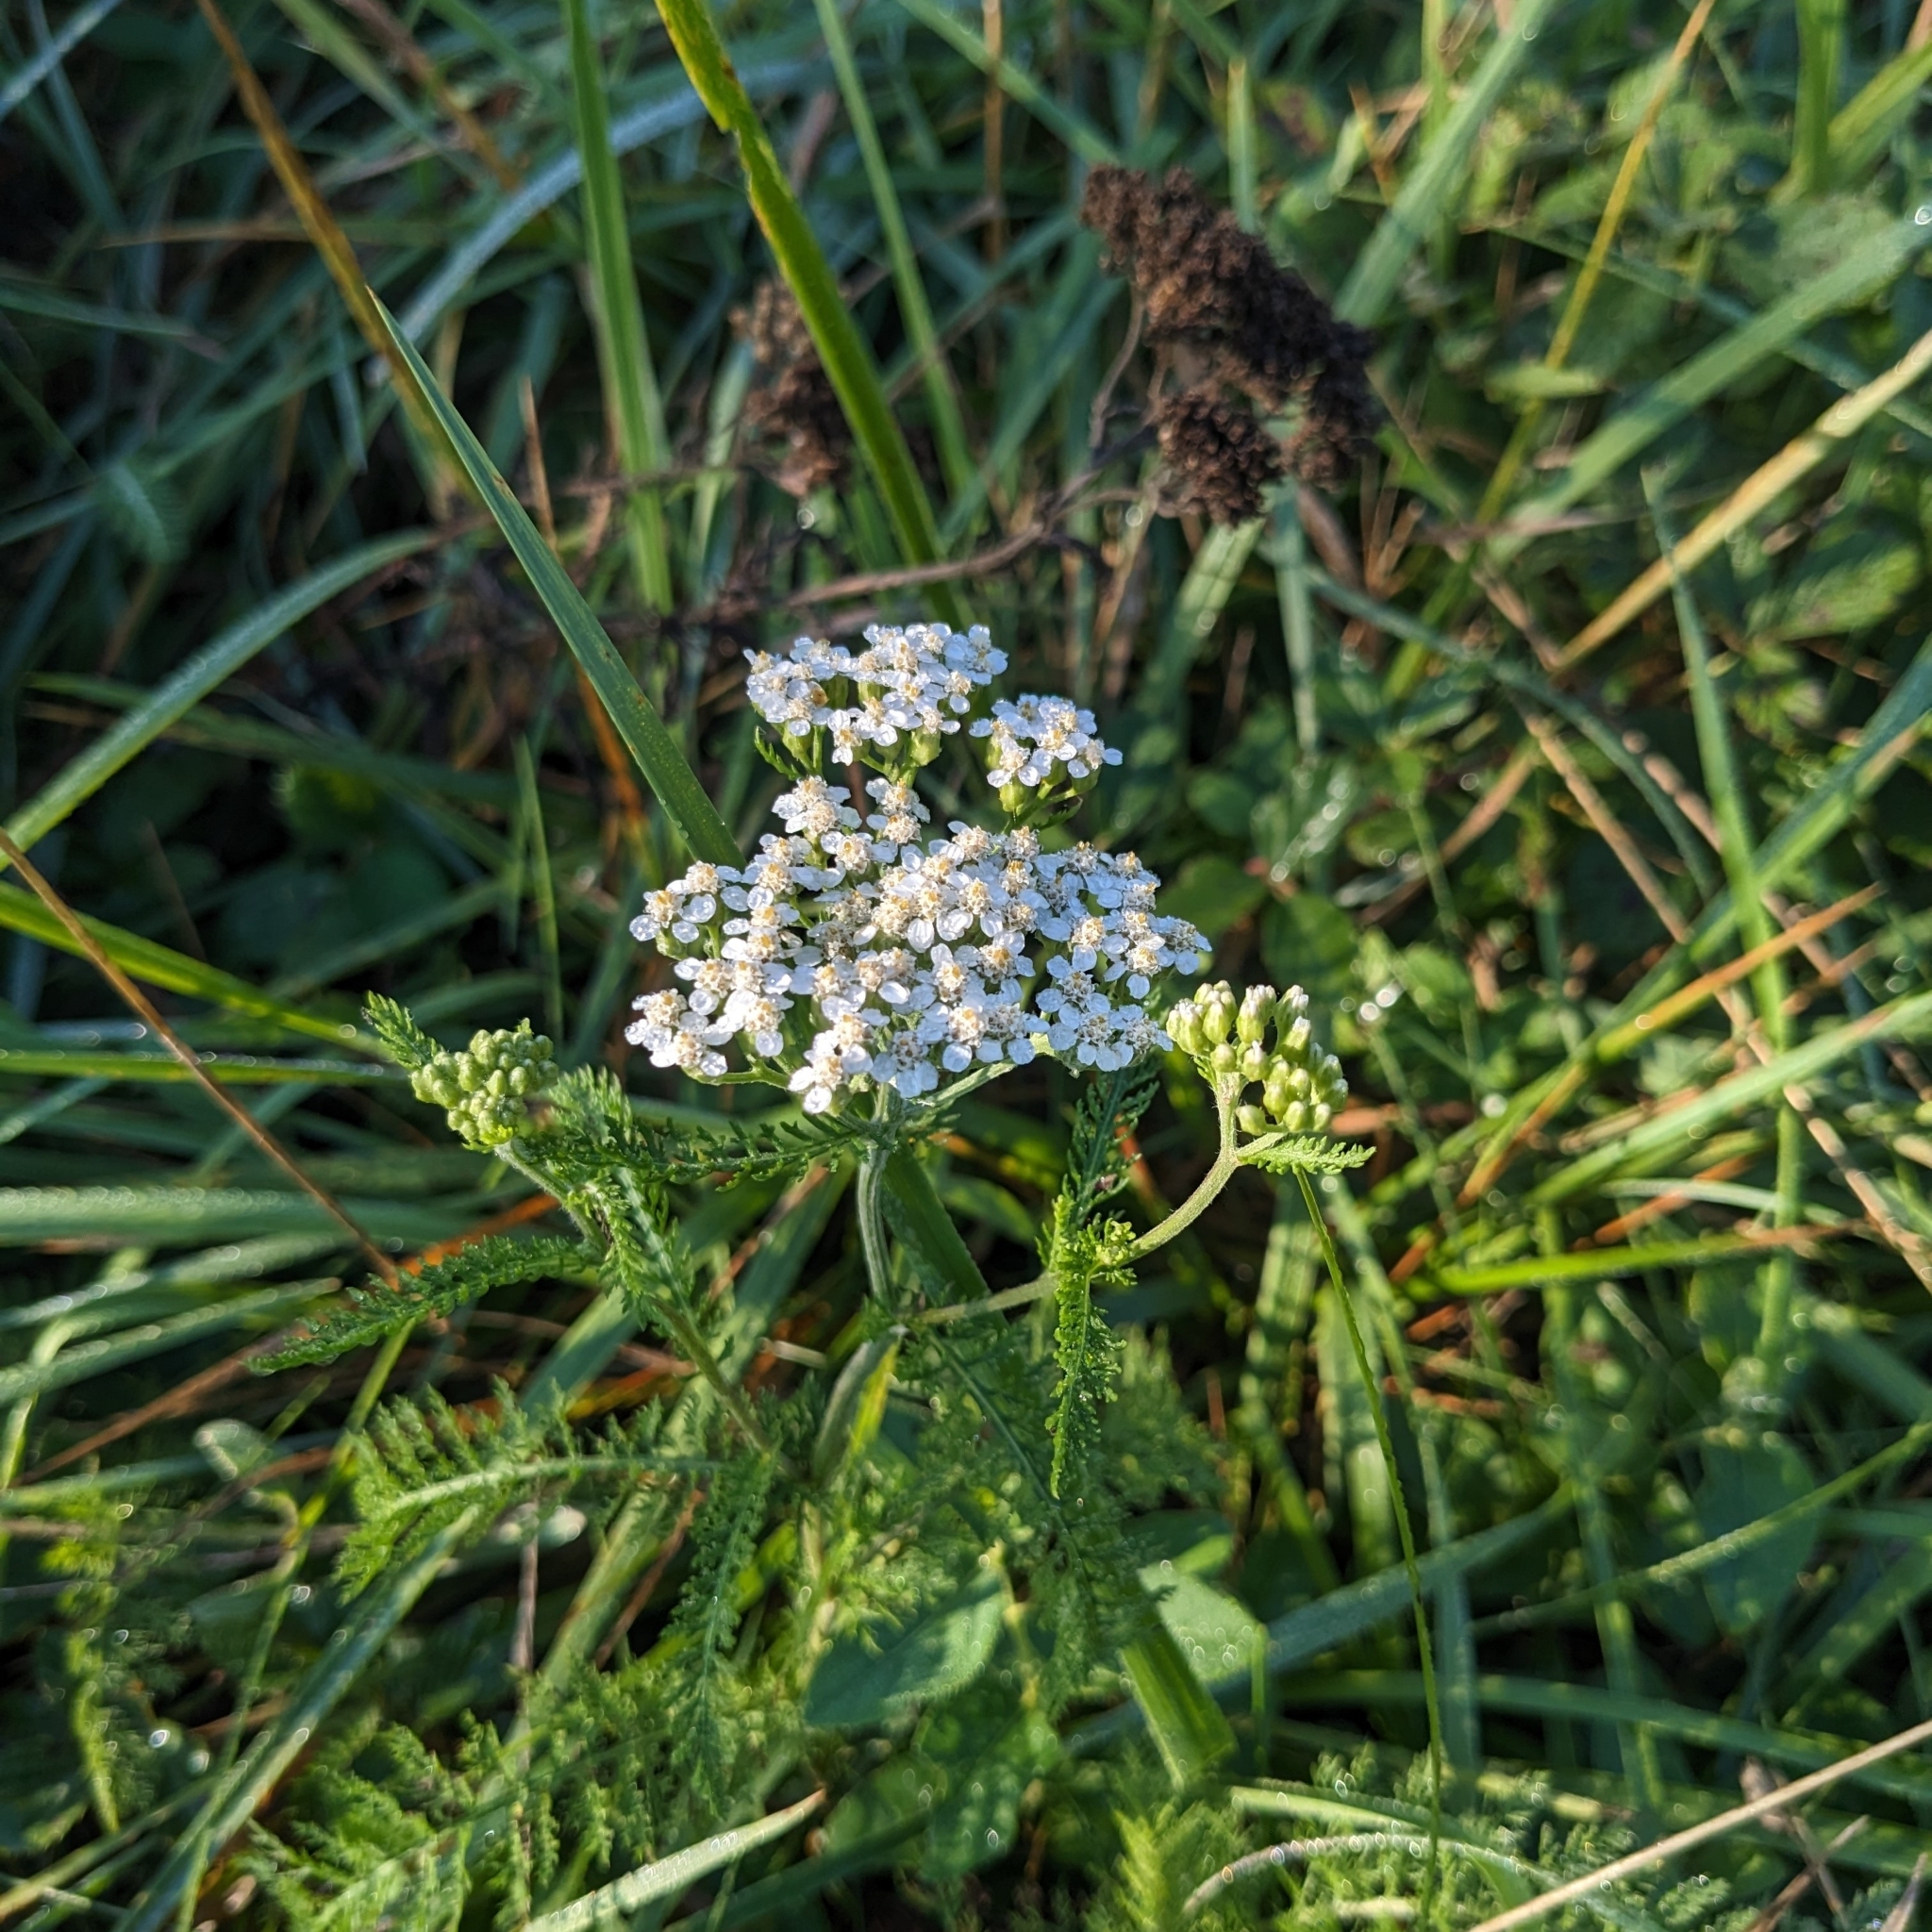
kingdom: Plantae
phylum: Tracheophyta
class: Magnoliopsida
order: Asterales
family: Asteraceae
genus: Achillea
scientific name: Achillea millefolium
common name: Yarrow
